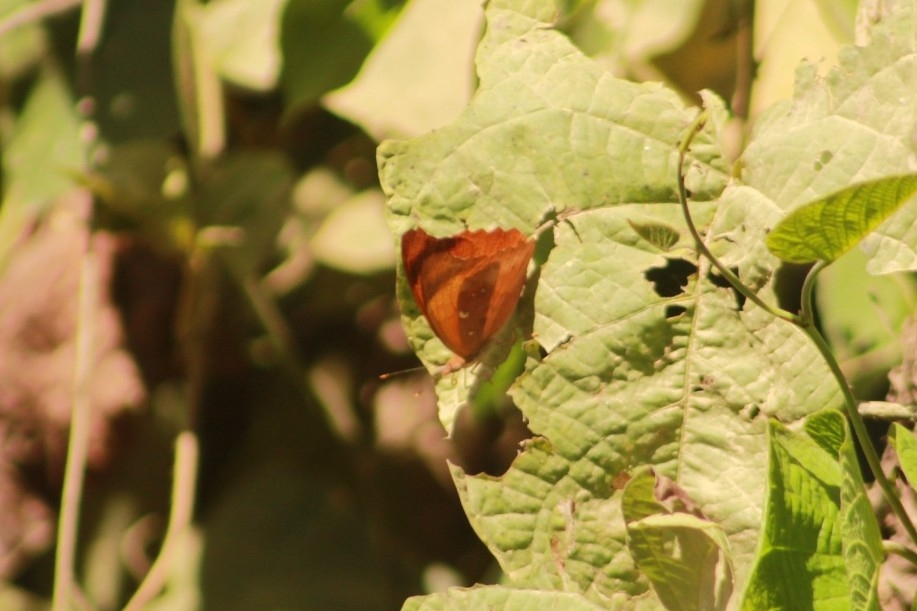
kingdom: Animalia
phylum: Arthropoda
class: Insecta
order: Lepidoptera
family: Nymphalidae
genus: Temenis
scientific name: Temenis laothoe
